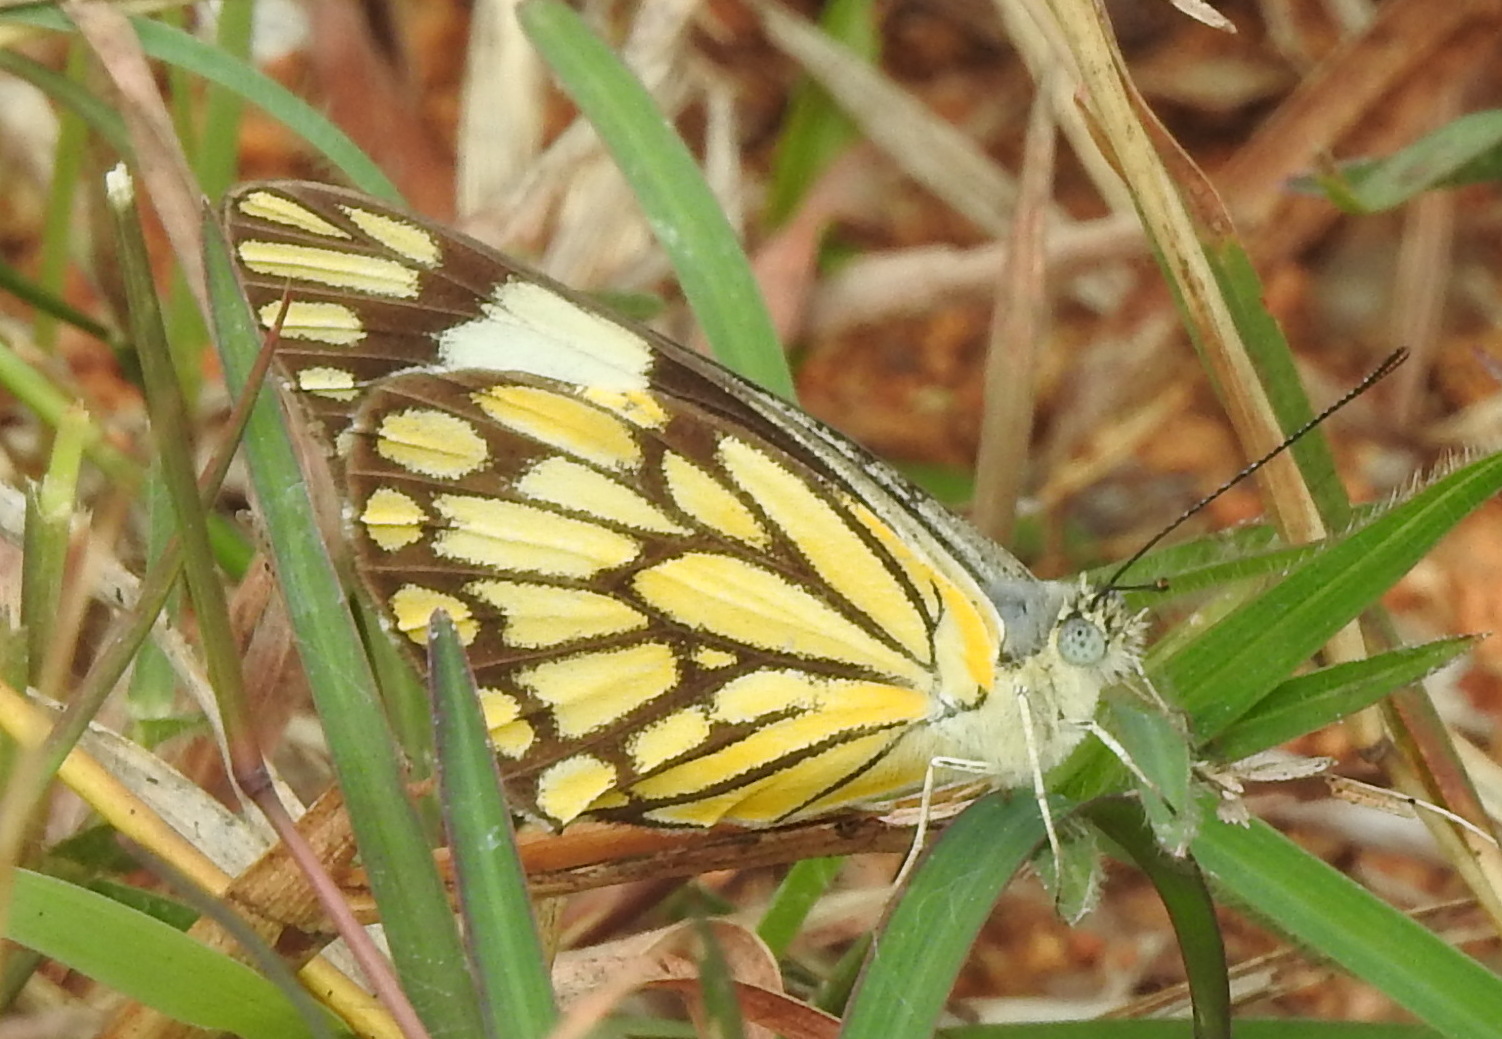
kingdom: Animalia
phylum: Arthropoda
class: Insecta
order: Lepidoptera
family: Pieridae
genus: Belenois
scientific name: Belenois aurota
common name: Brown-veined white
